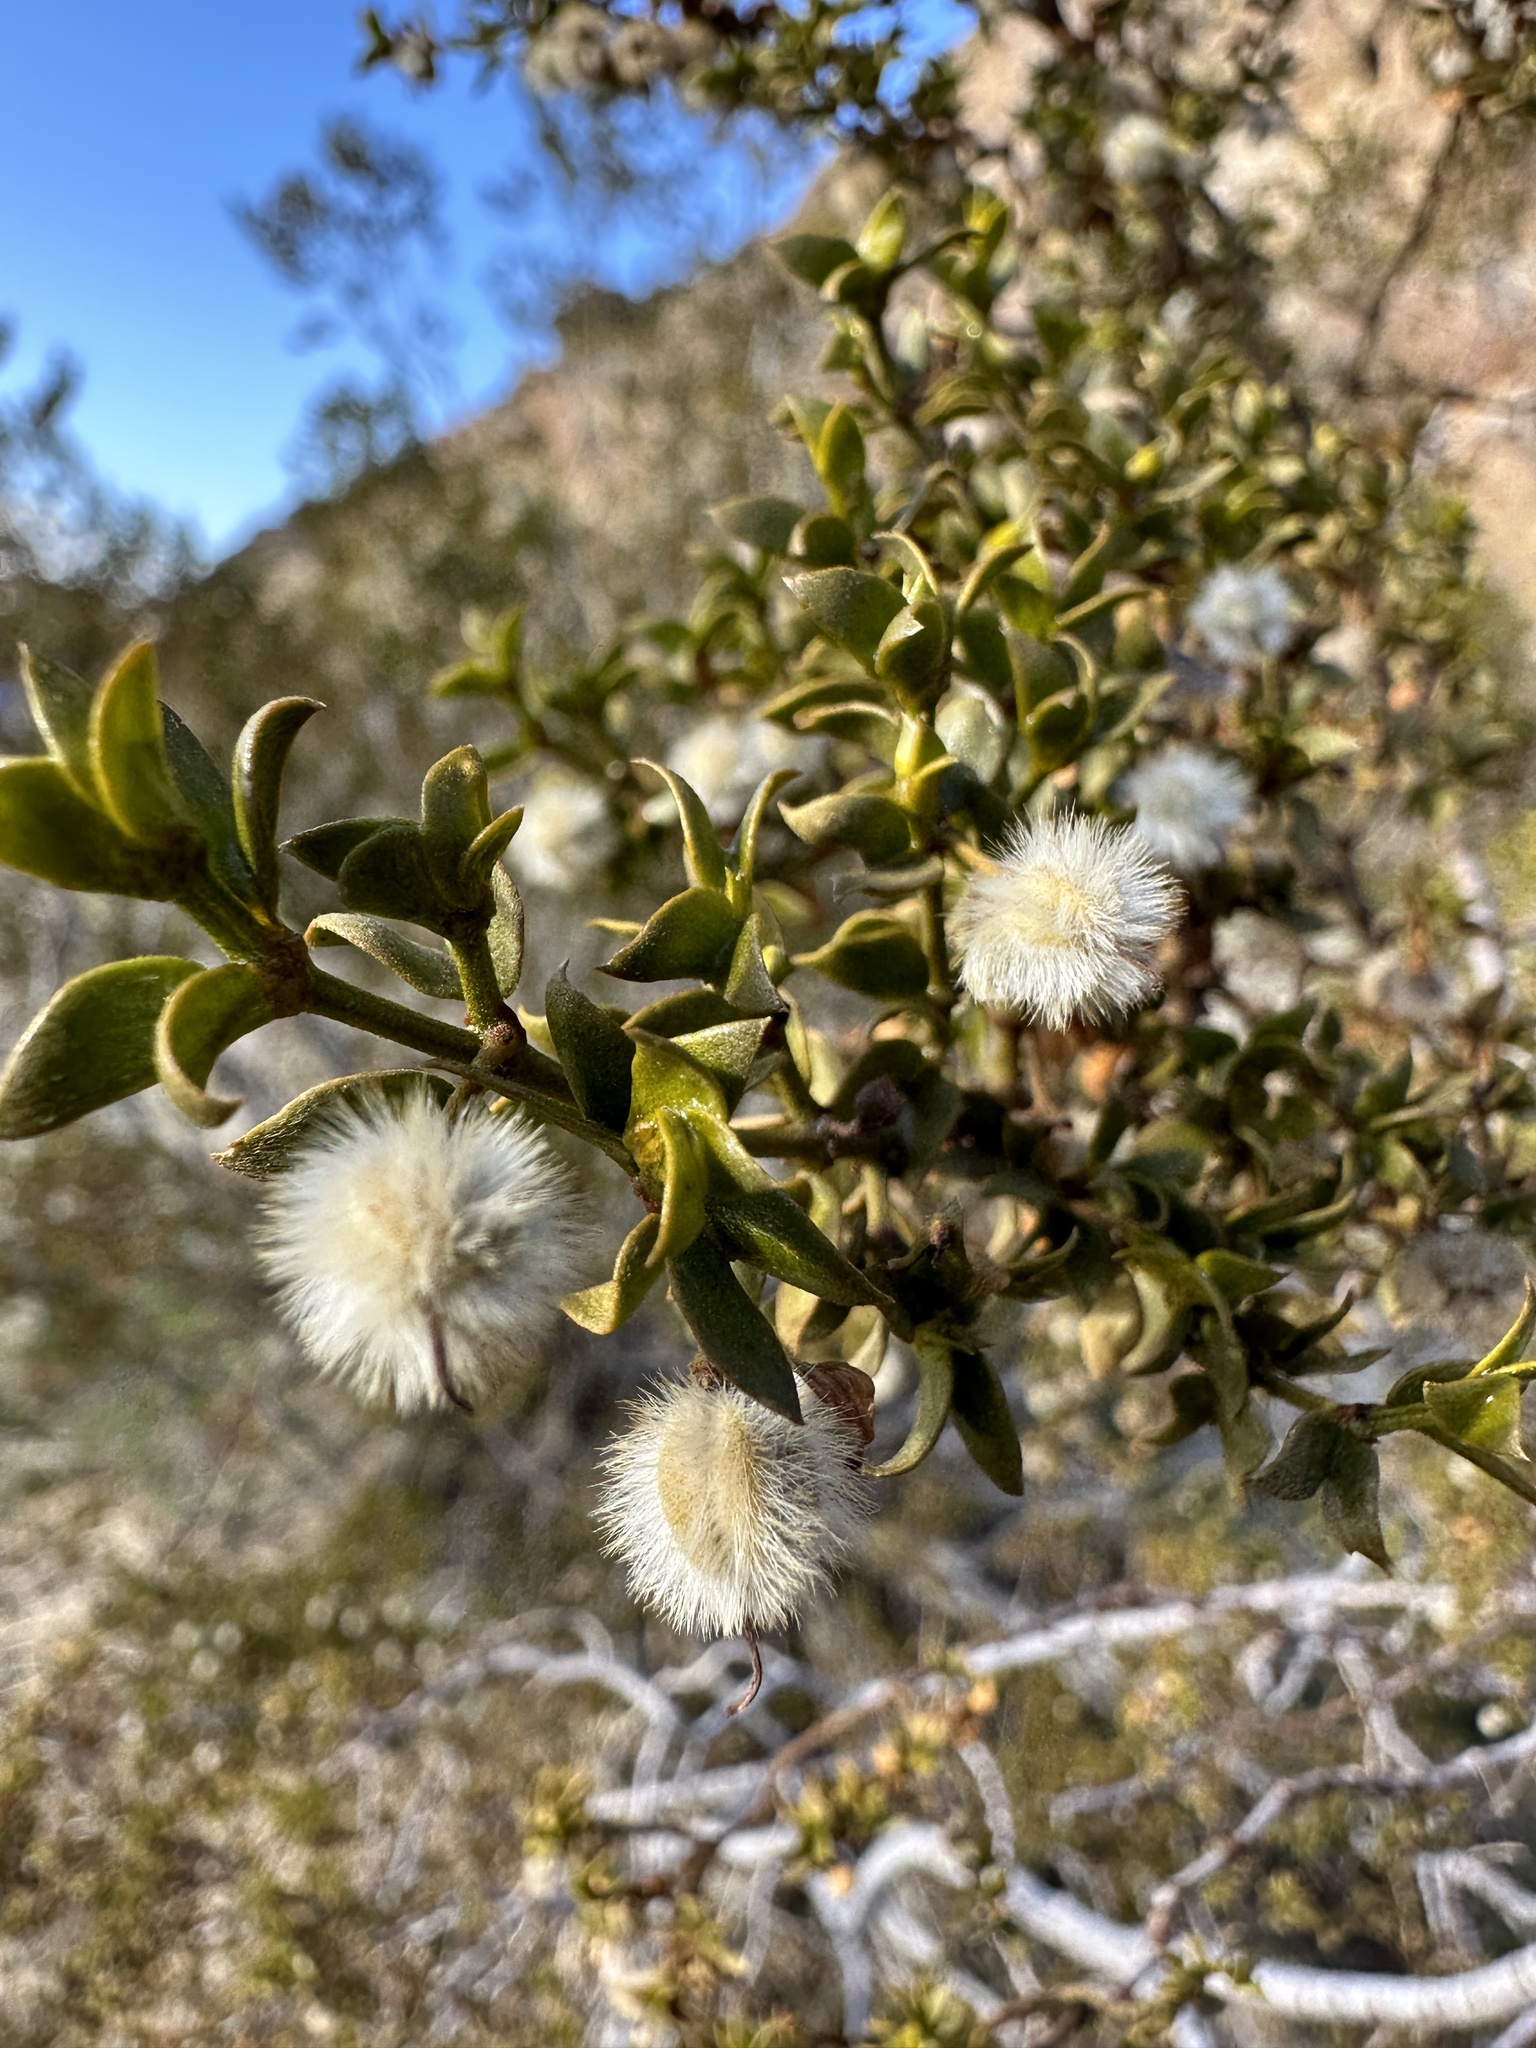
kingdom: Plantae
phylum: Tracheophyta
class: Magnoliopsida
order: Zygophyllales
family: Zygophyllaceae
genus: Larrea
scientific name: Larrea tridentata
